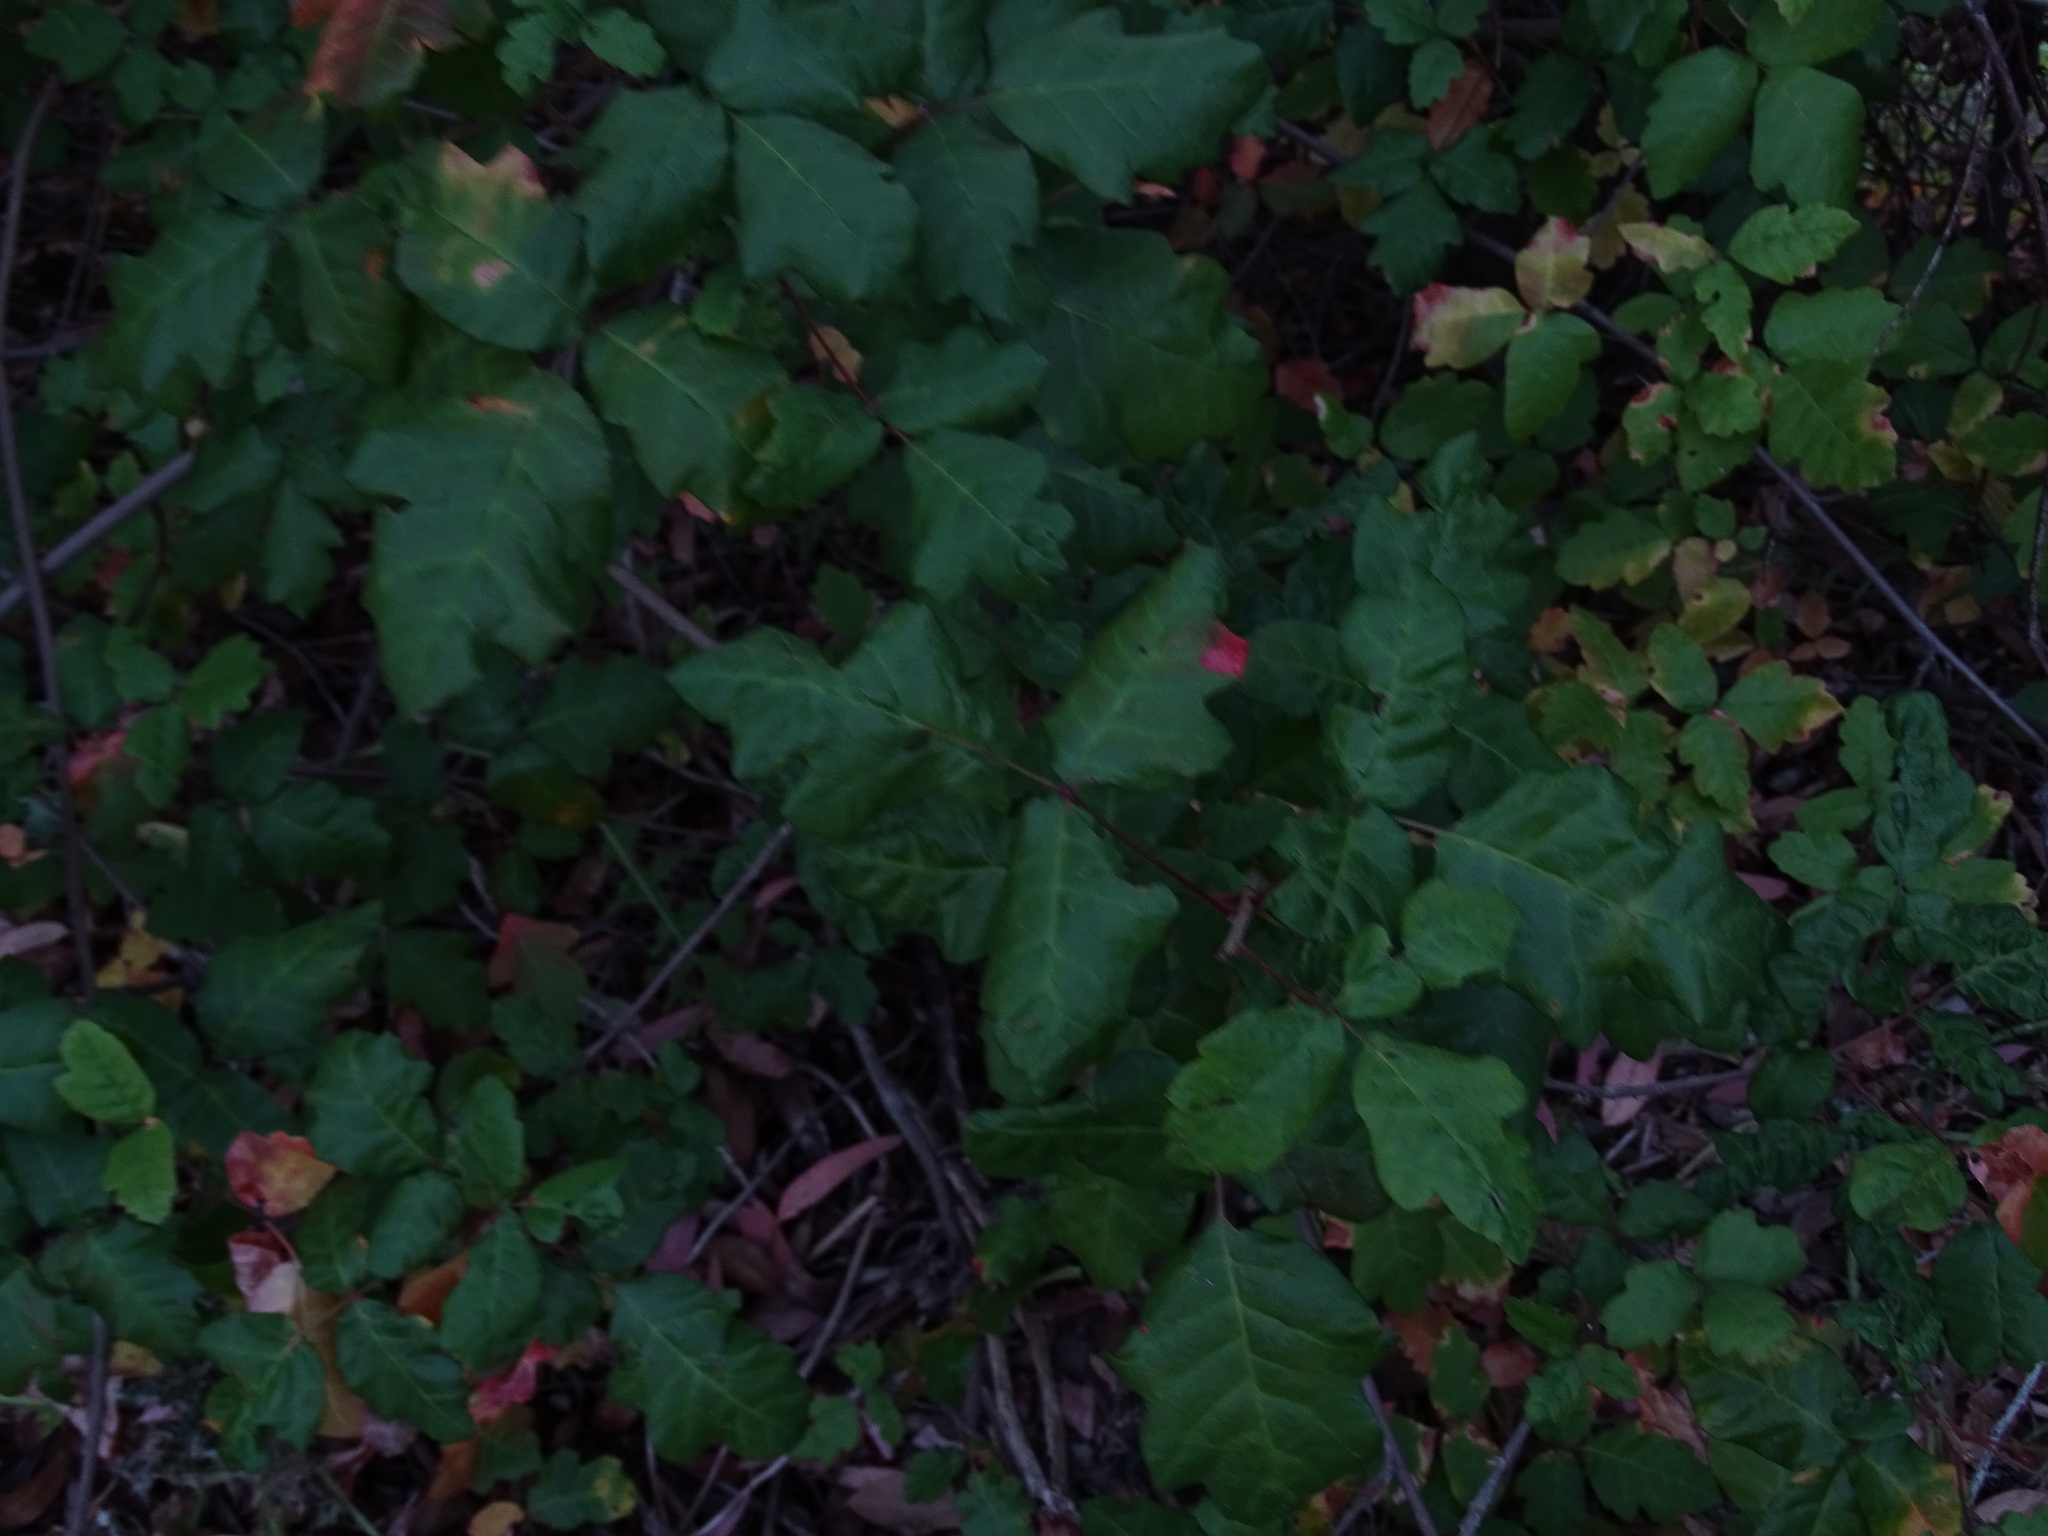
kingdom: Plantae
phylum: Tracheophyta
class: Magnoliopsida
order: Sapindales
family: Anacardiaceae
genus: Toxicodendron
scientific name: Toxicodendron diversilobum
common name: Pacific poison-oak
